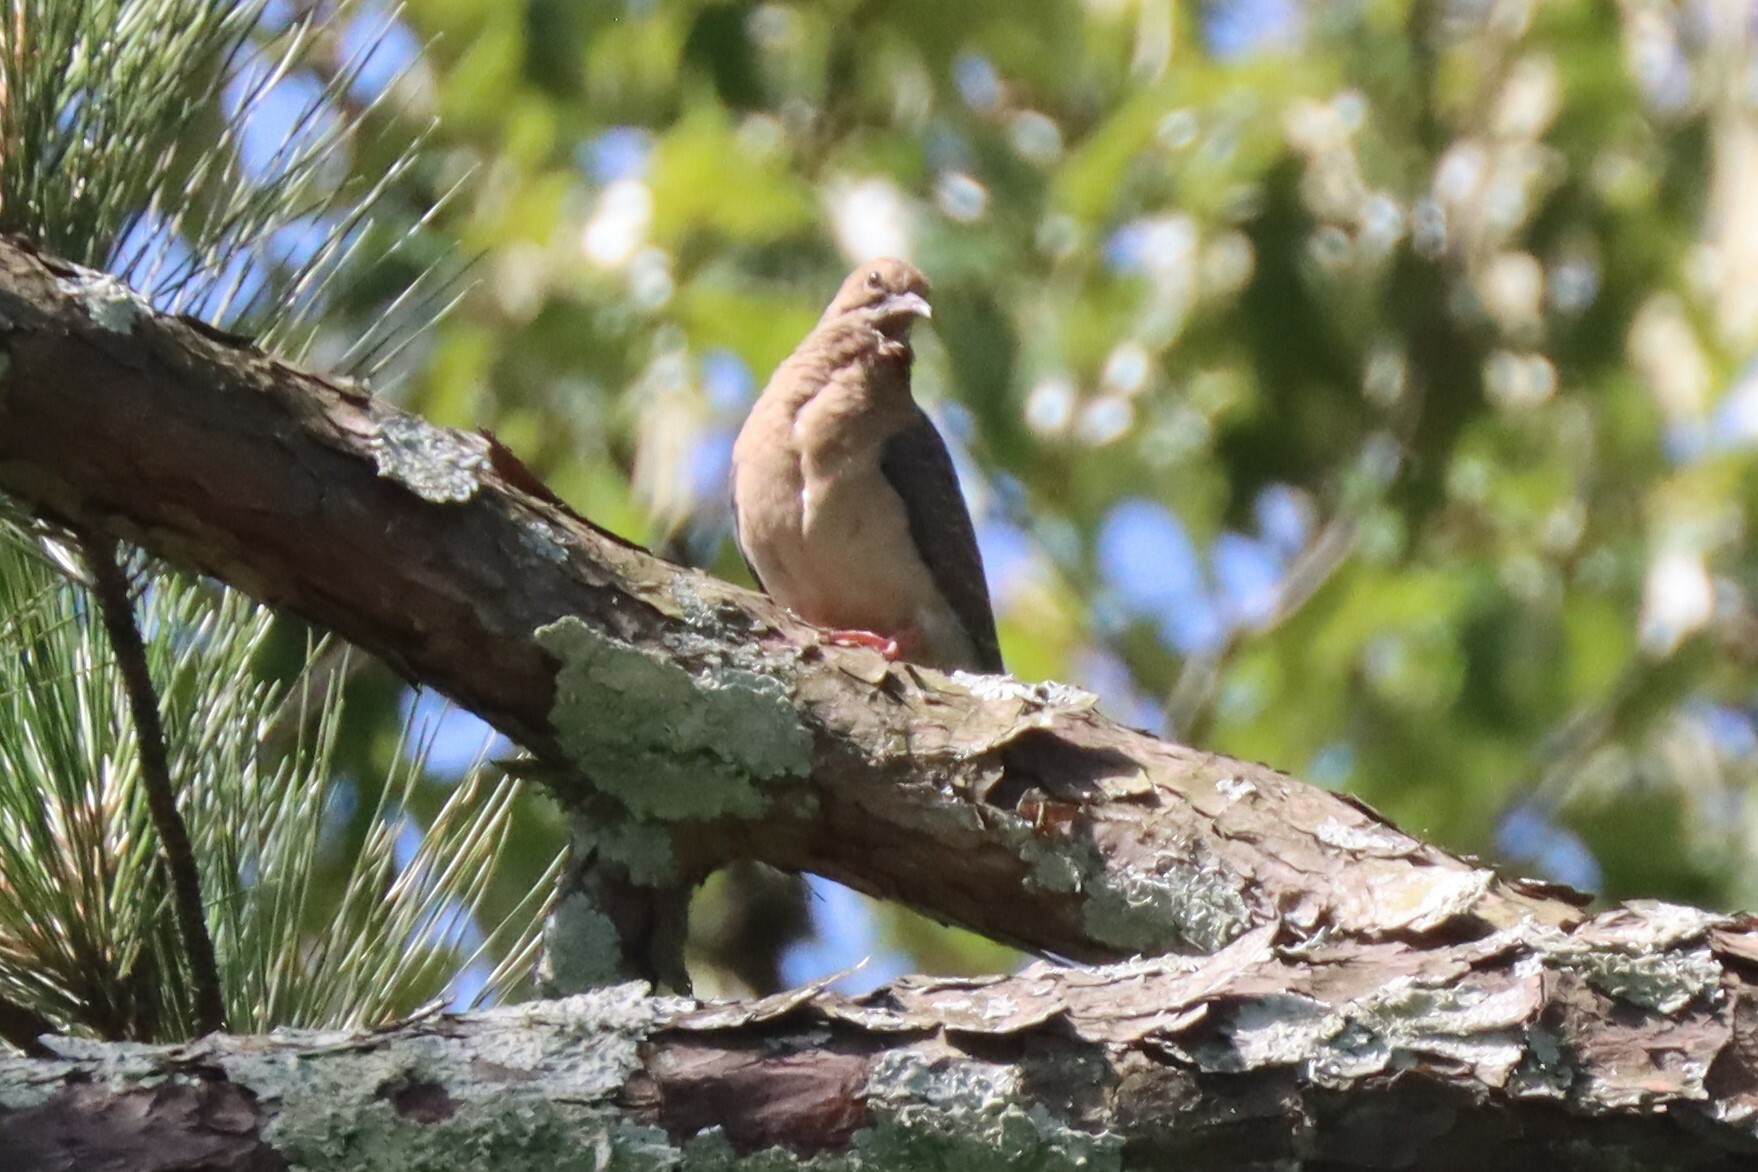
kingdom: Animalia
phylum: Chordata
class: Aves
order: Columbiformes
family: Columbidae
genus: Zenaida
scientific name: Zenaida macroura
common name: Mourning dove
